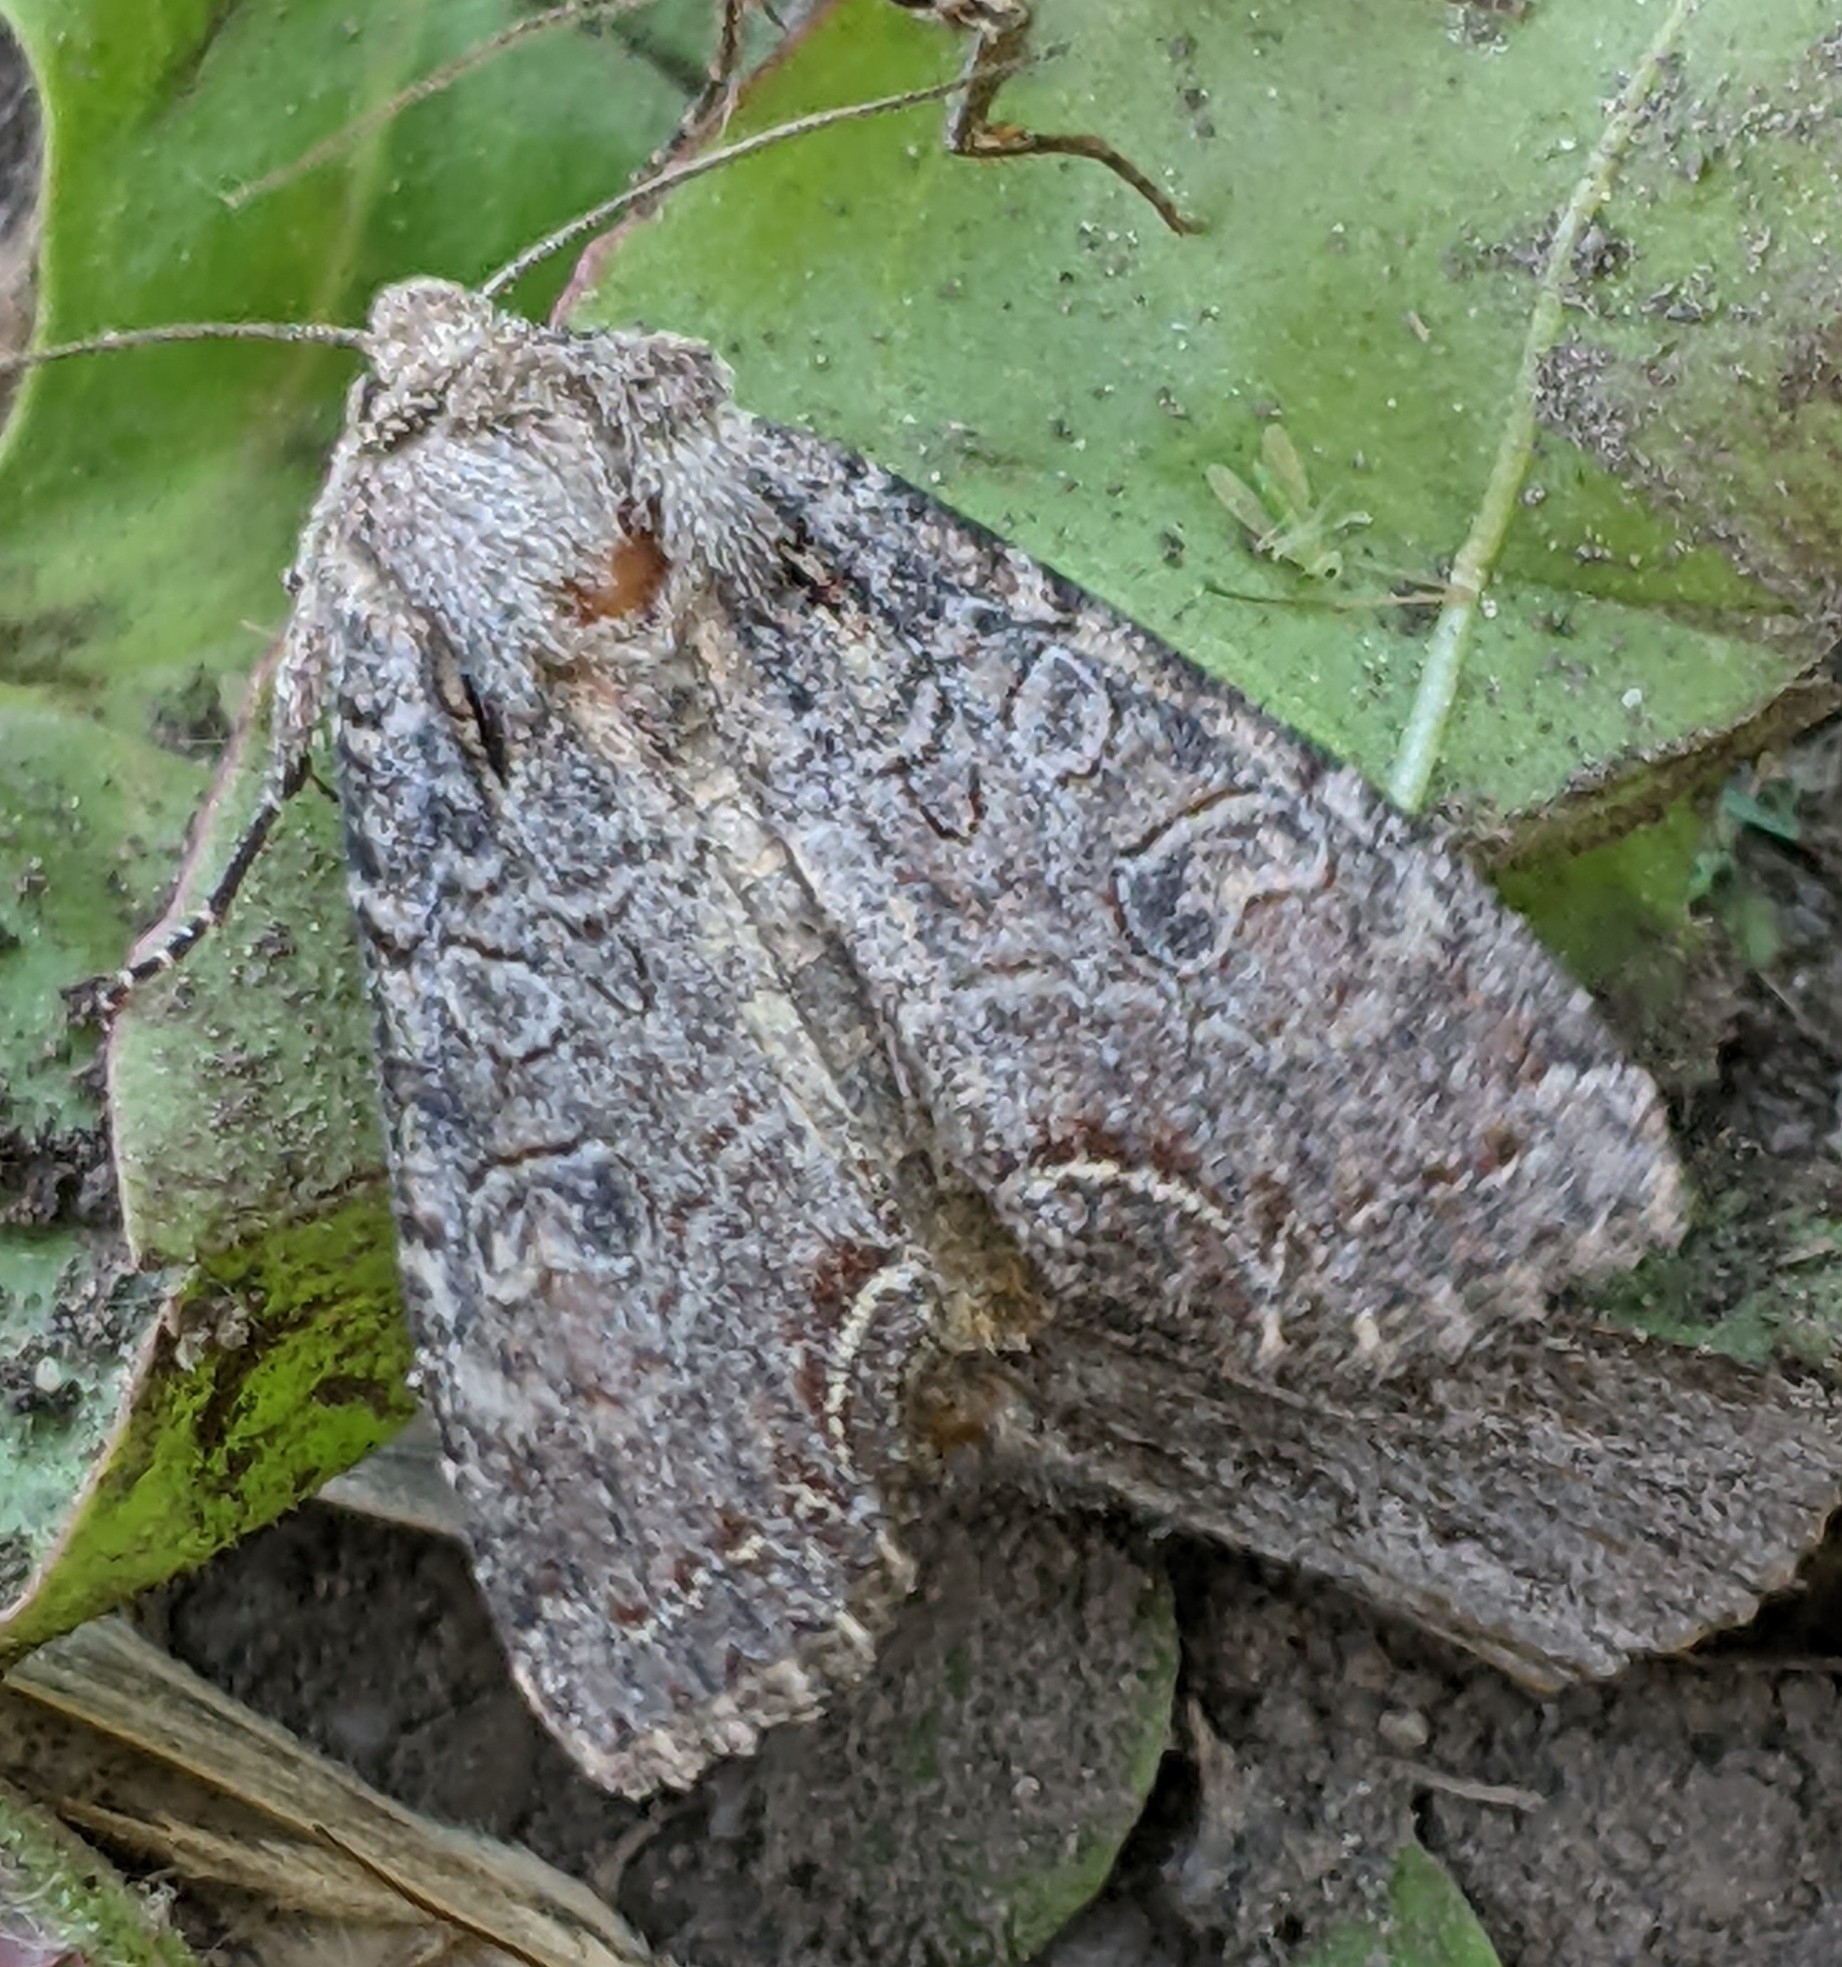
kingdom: Animalia
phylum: Arthropoda
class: Insecta
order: Lepidoptera
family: Noctuidae
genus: Lacanobia
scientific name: Lacanobia radix
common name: Garden arches moth
